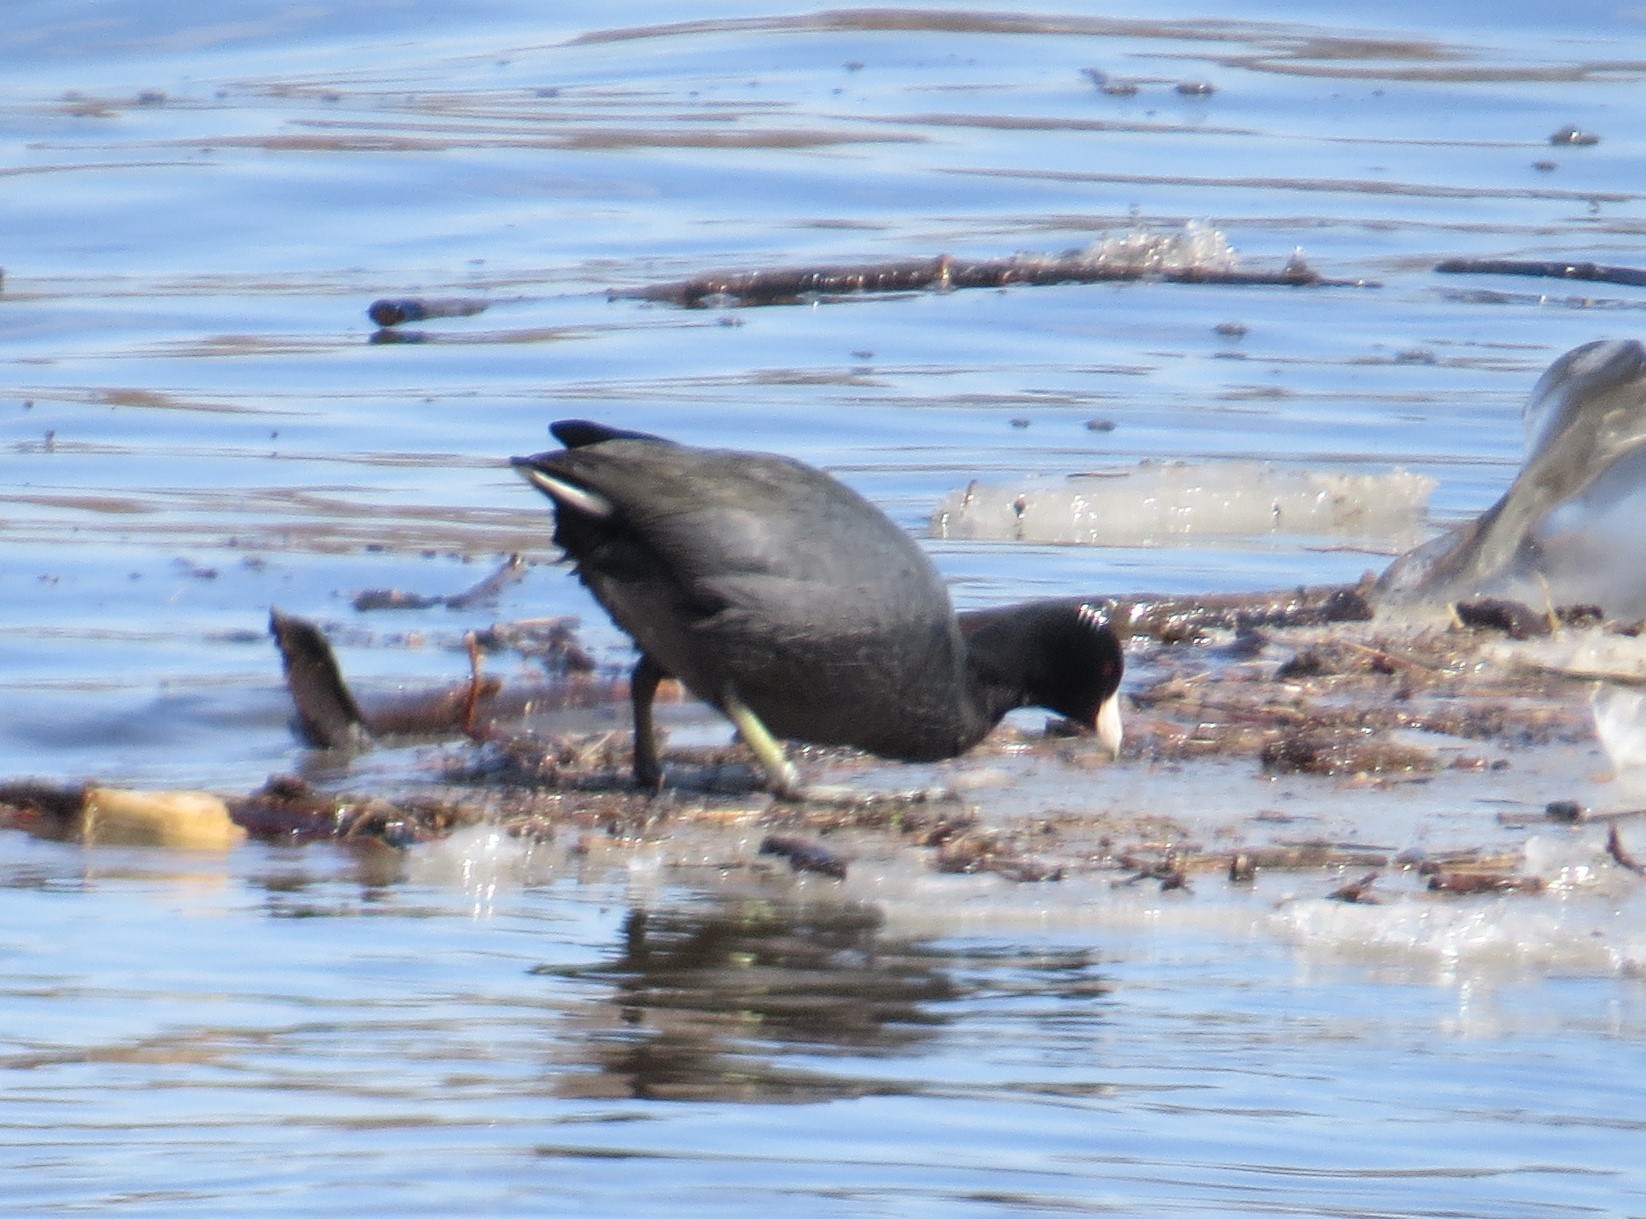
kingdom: Animalia
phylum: Chordata
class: Aves
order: Gruiformes
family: Rallidae
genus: Fulica
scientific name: Fulica americana
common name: American coot
